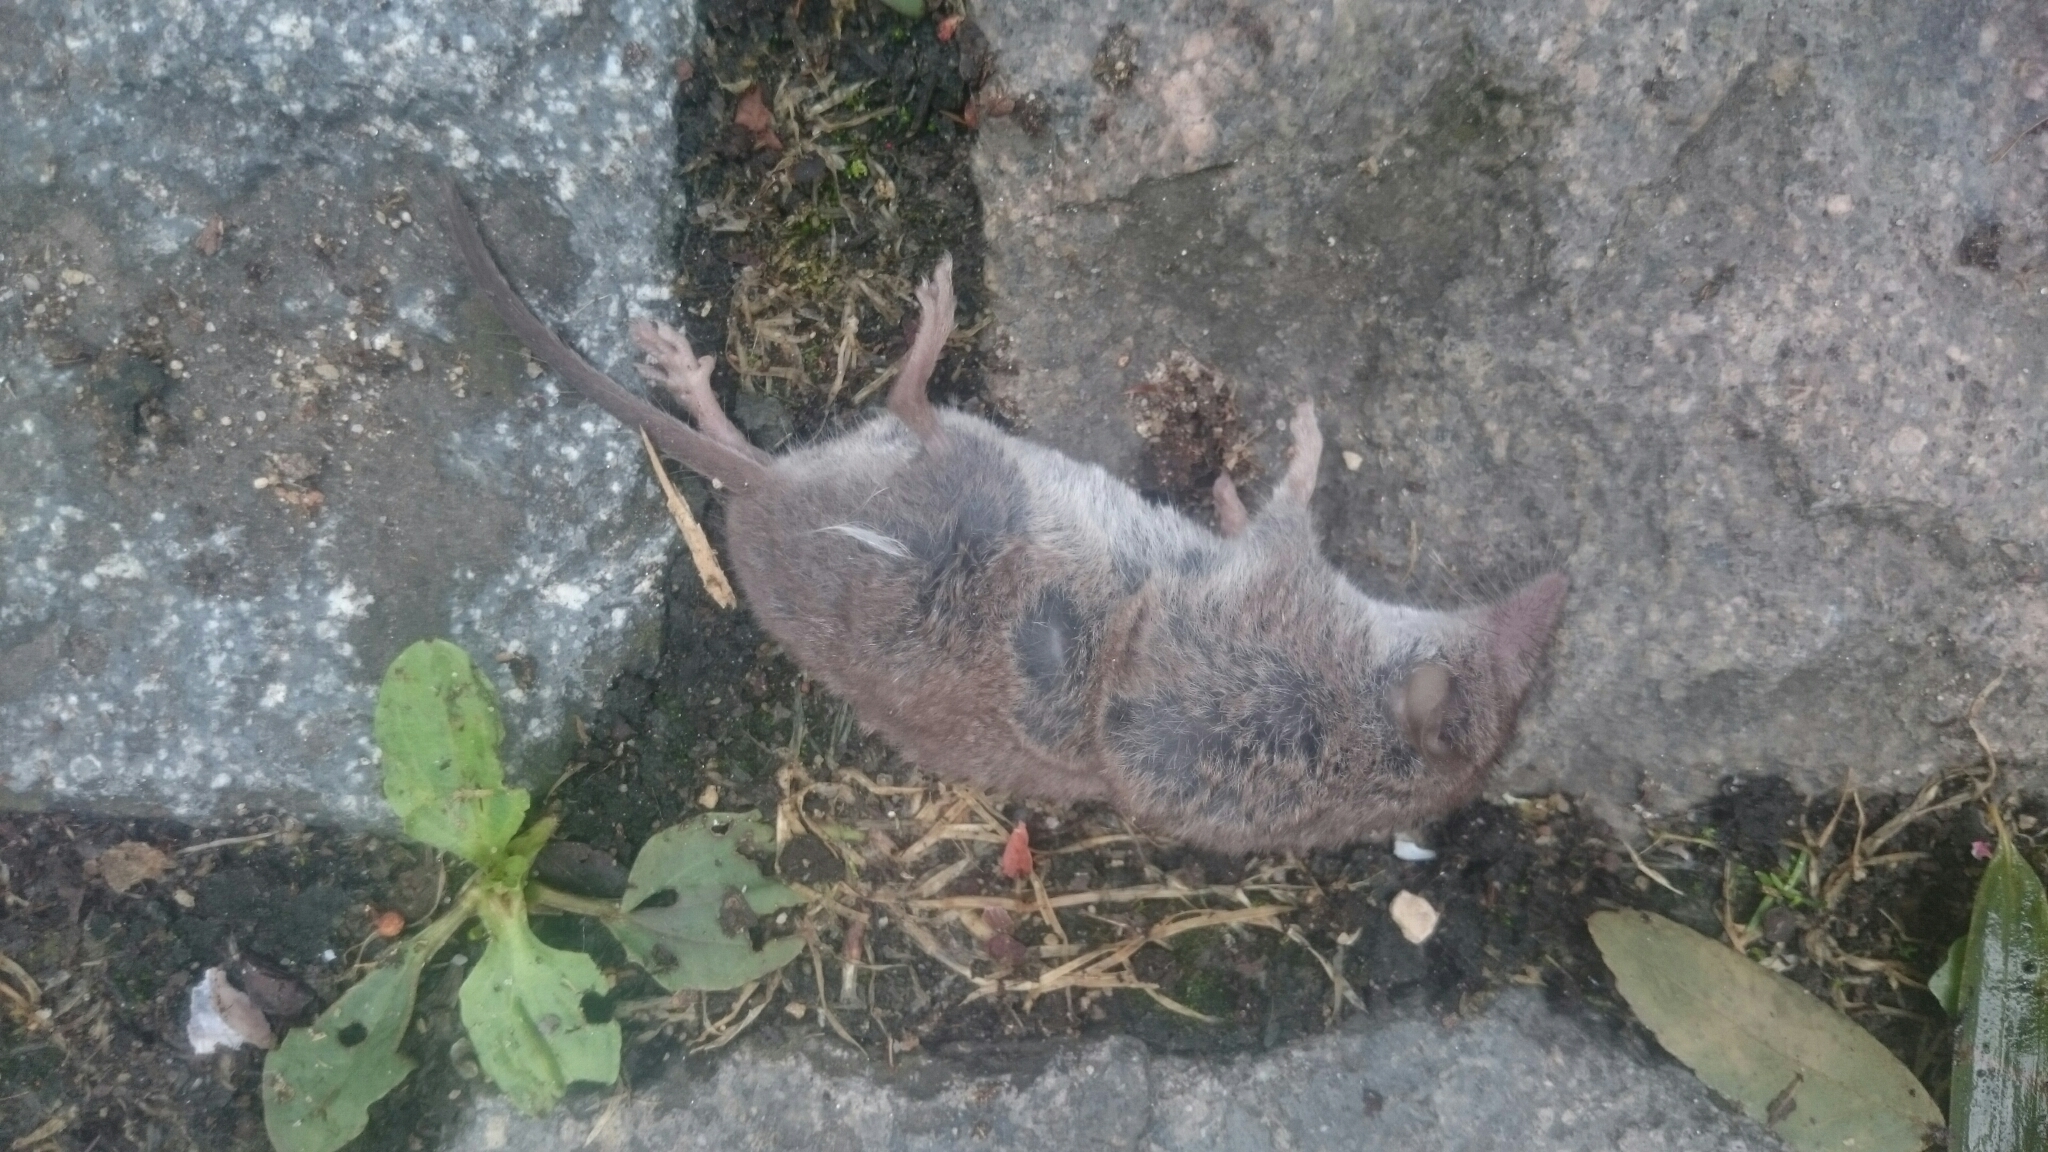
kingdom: Animalia
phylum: Chordata
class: Mammalia
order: Soricomorpha
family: Soricidae
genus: Crocidura
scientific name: Crocidura russula
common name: Greater white-toothed shrew
